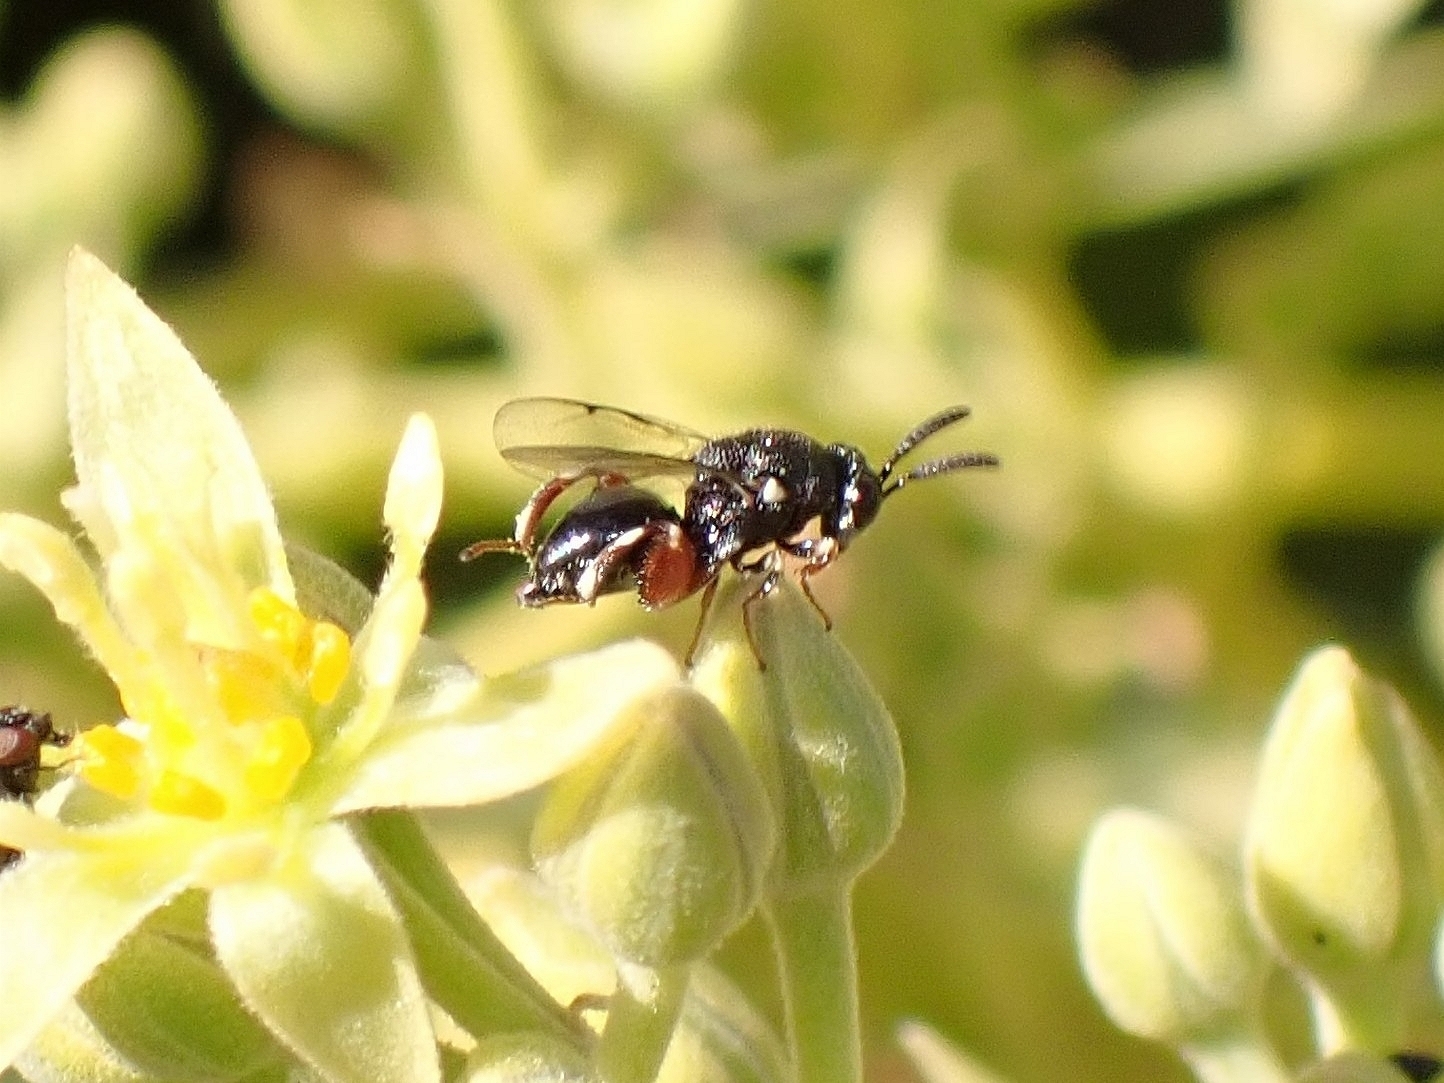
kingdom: Animalia
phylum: Arthropoda
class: Insecta
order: Hymenoptera
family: Chalcididae
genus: Brachymeria
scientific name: Brachymeria podagrica
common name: Chalcid wasp
